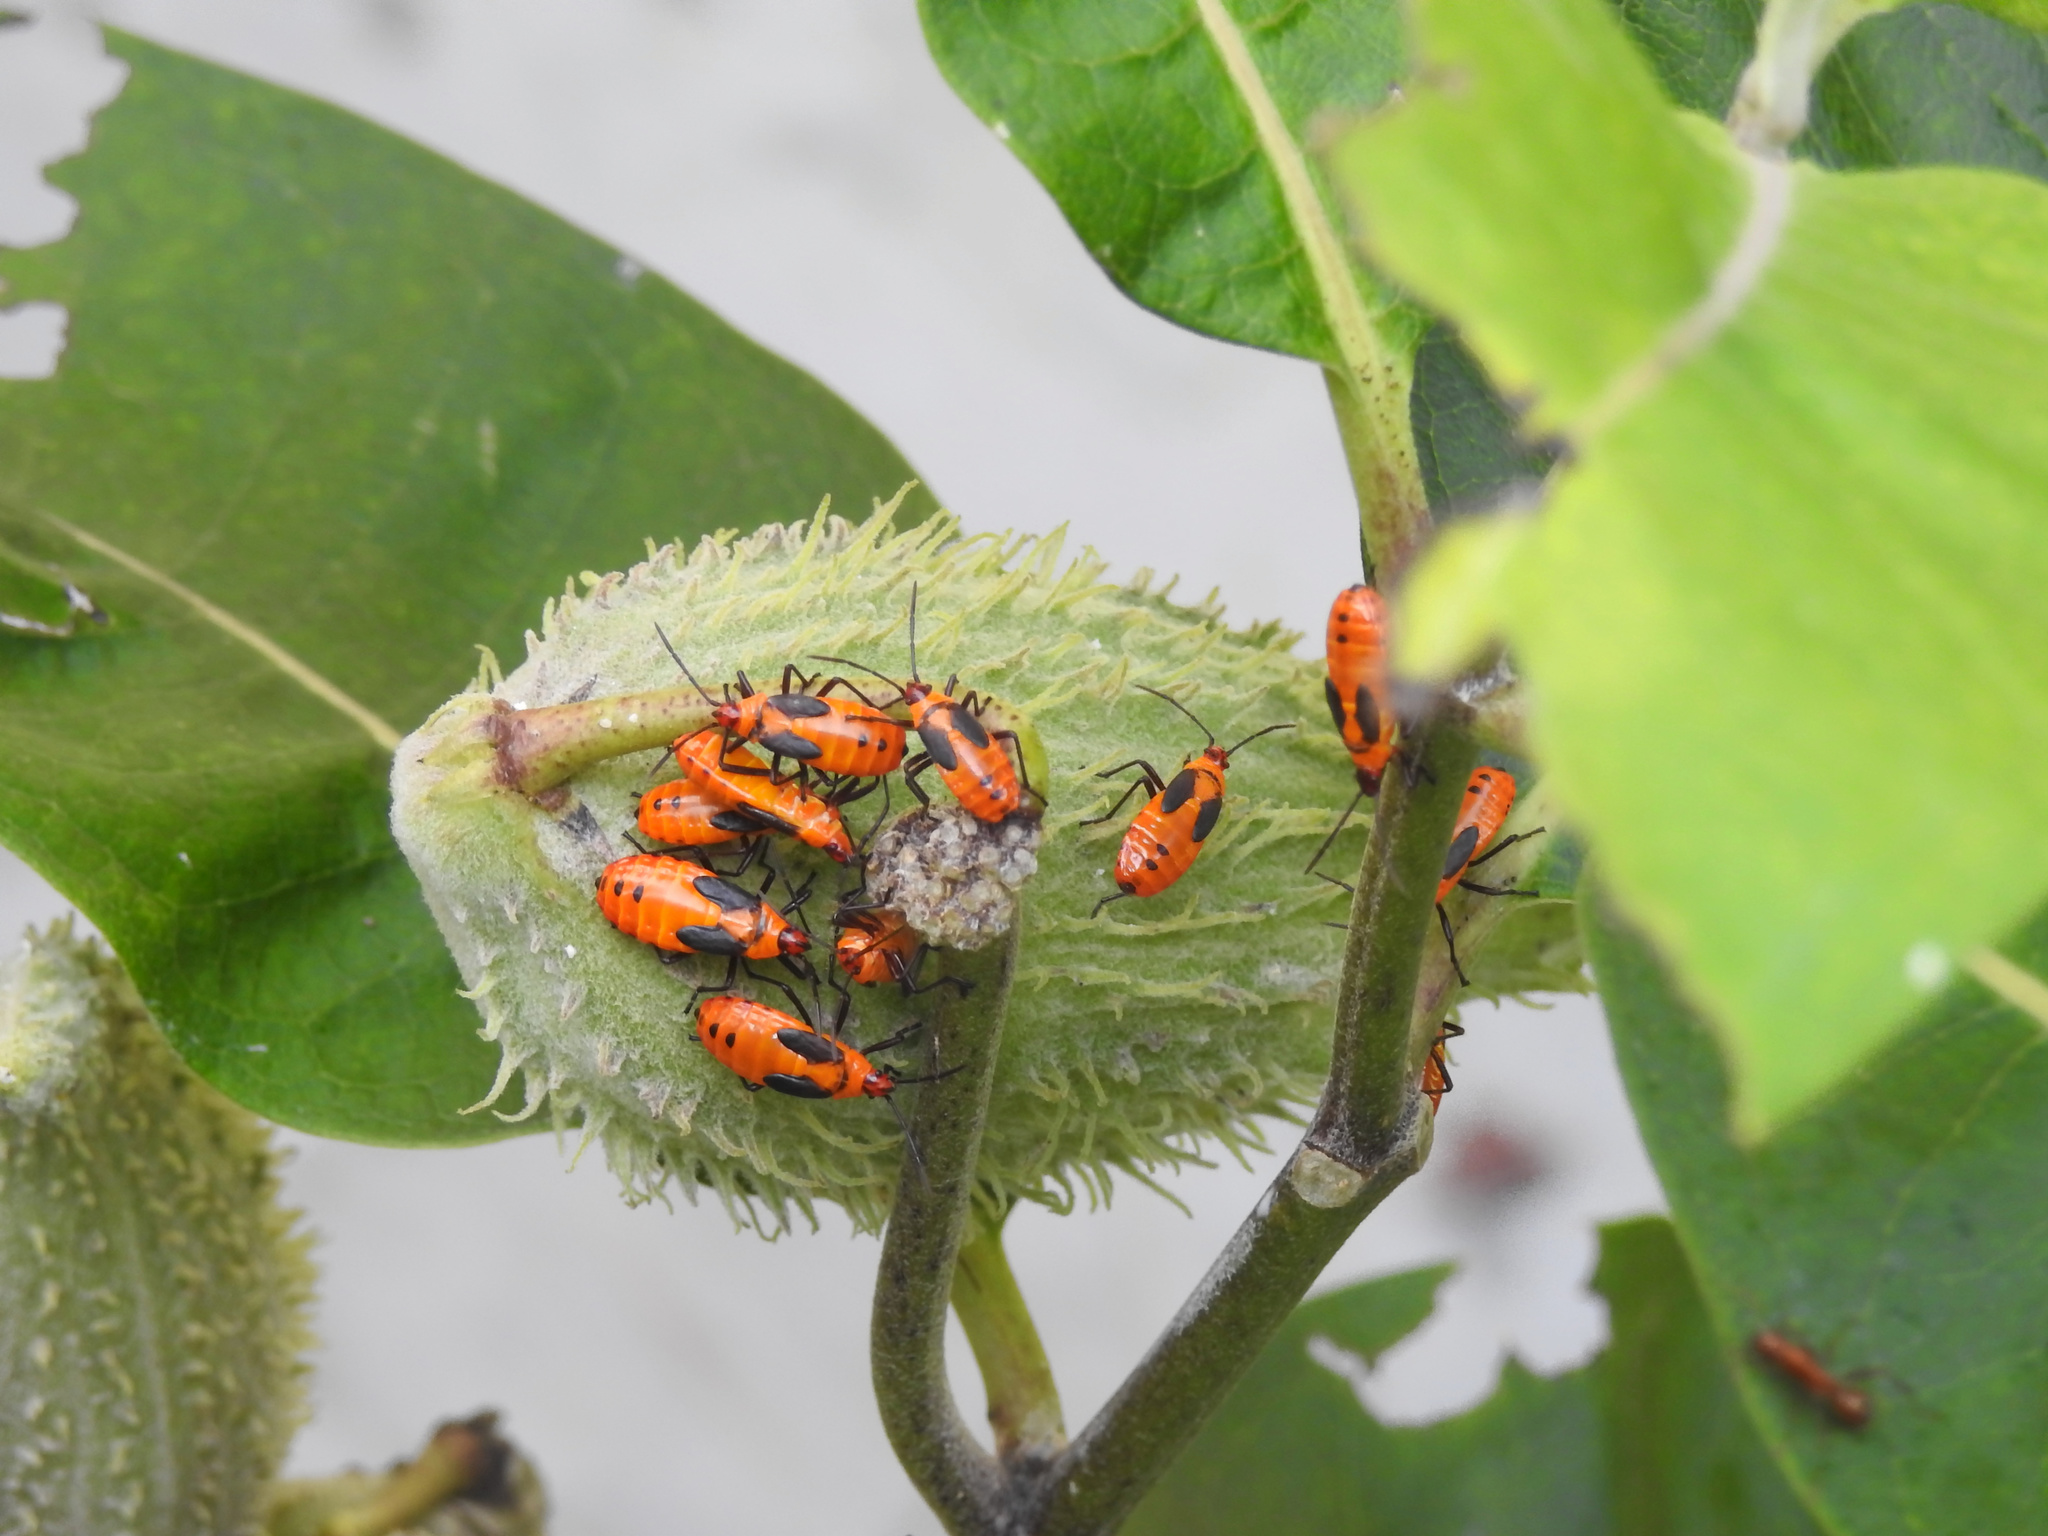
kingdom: Animalia
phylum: Arthropoda
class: Insecta
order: Hemiptera
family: Lygaeidae
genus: Oncopeltus
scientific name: Oncopeltus fasciatus
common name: Large milkweed bug
